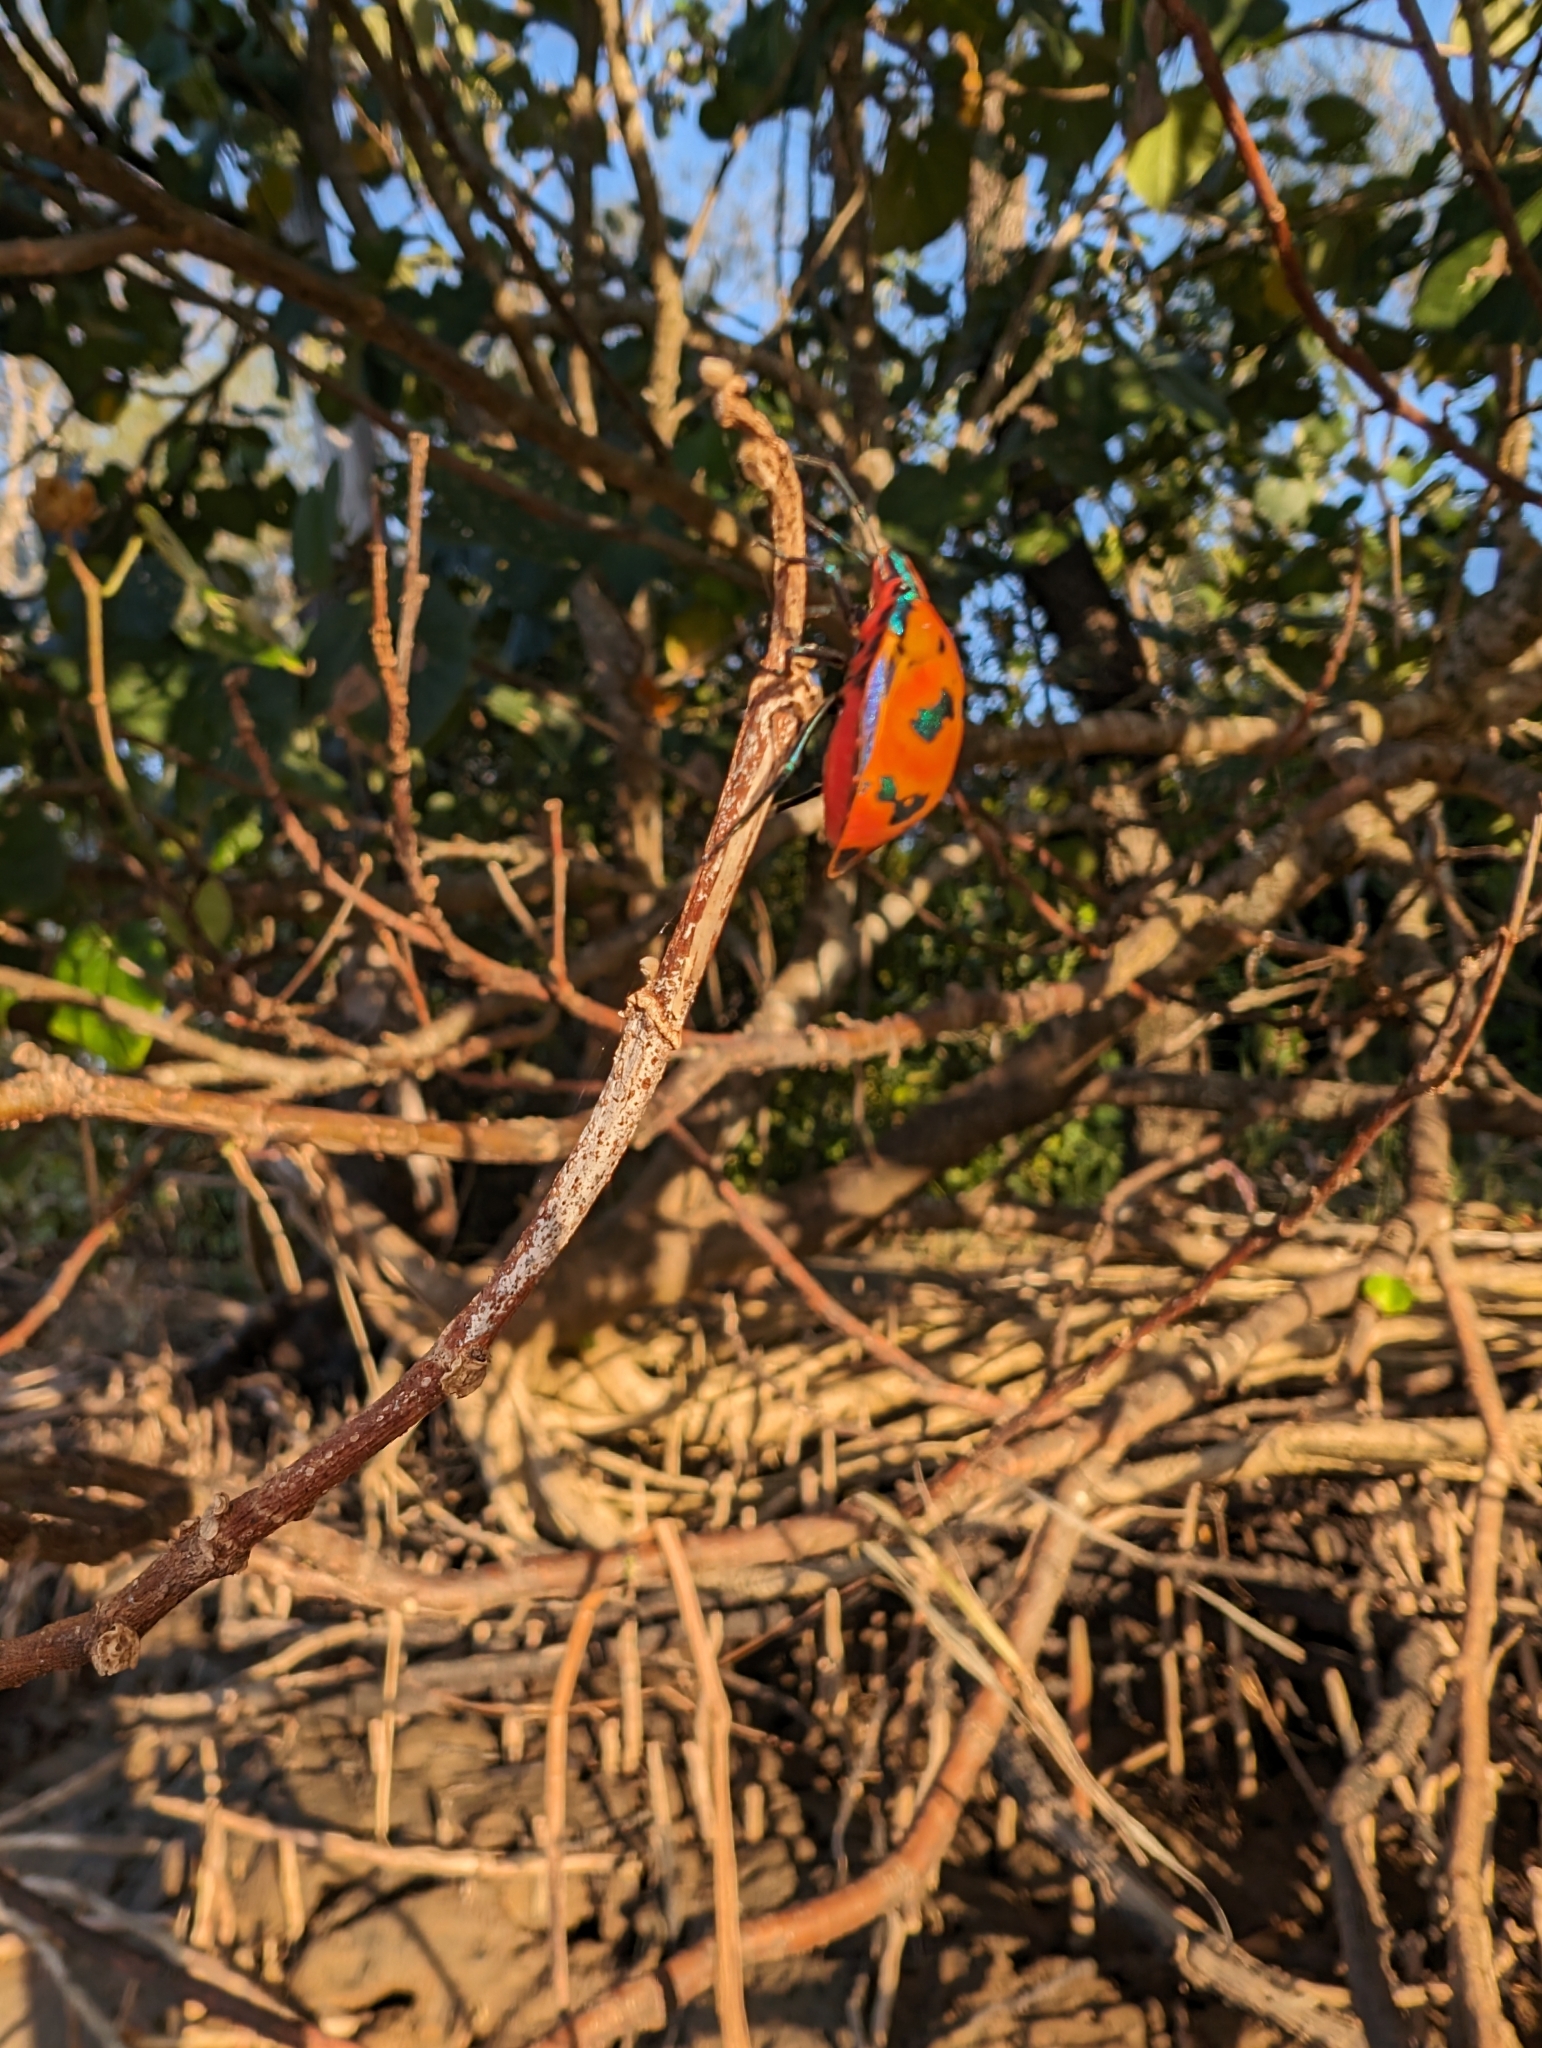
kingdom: Animalia
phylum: Arthropoda
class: Insecta
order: Hemiptera
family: Scutelleridae
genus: Tectocoris
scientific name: Tectocoris diophthalmus
